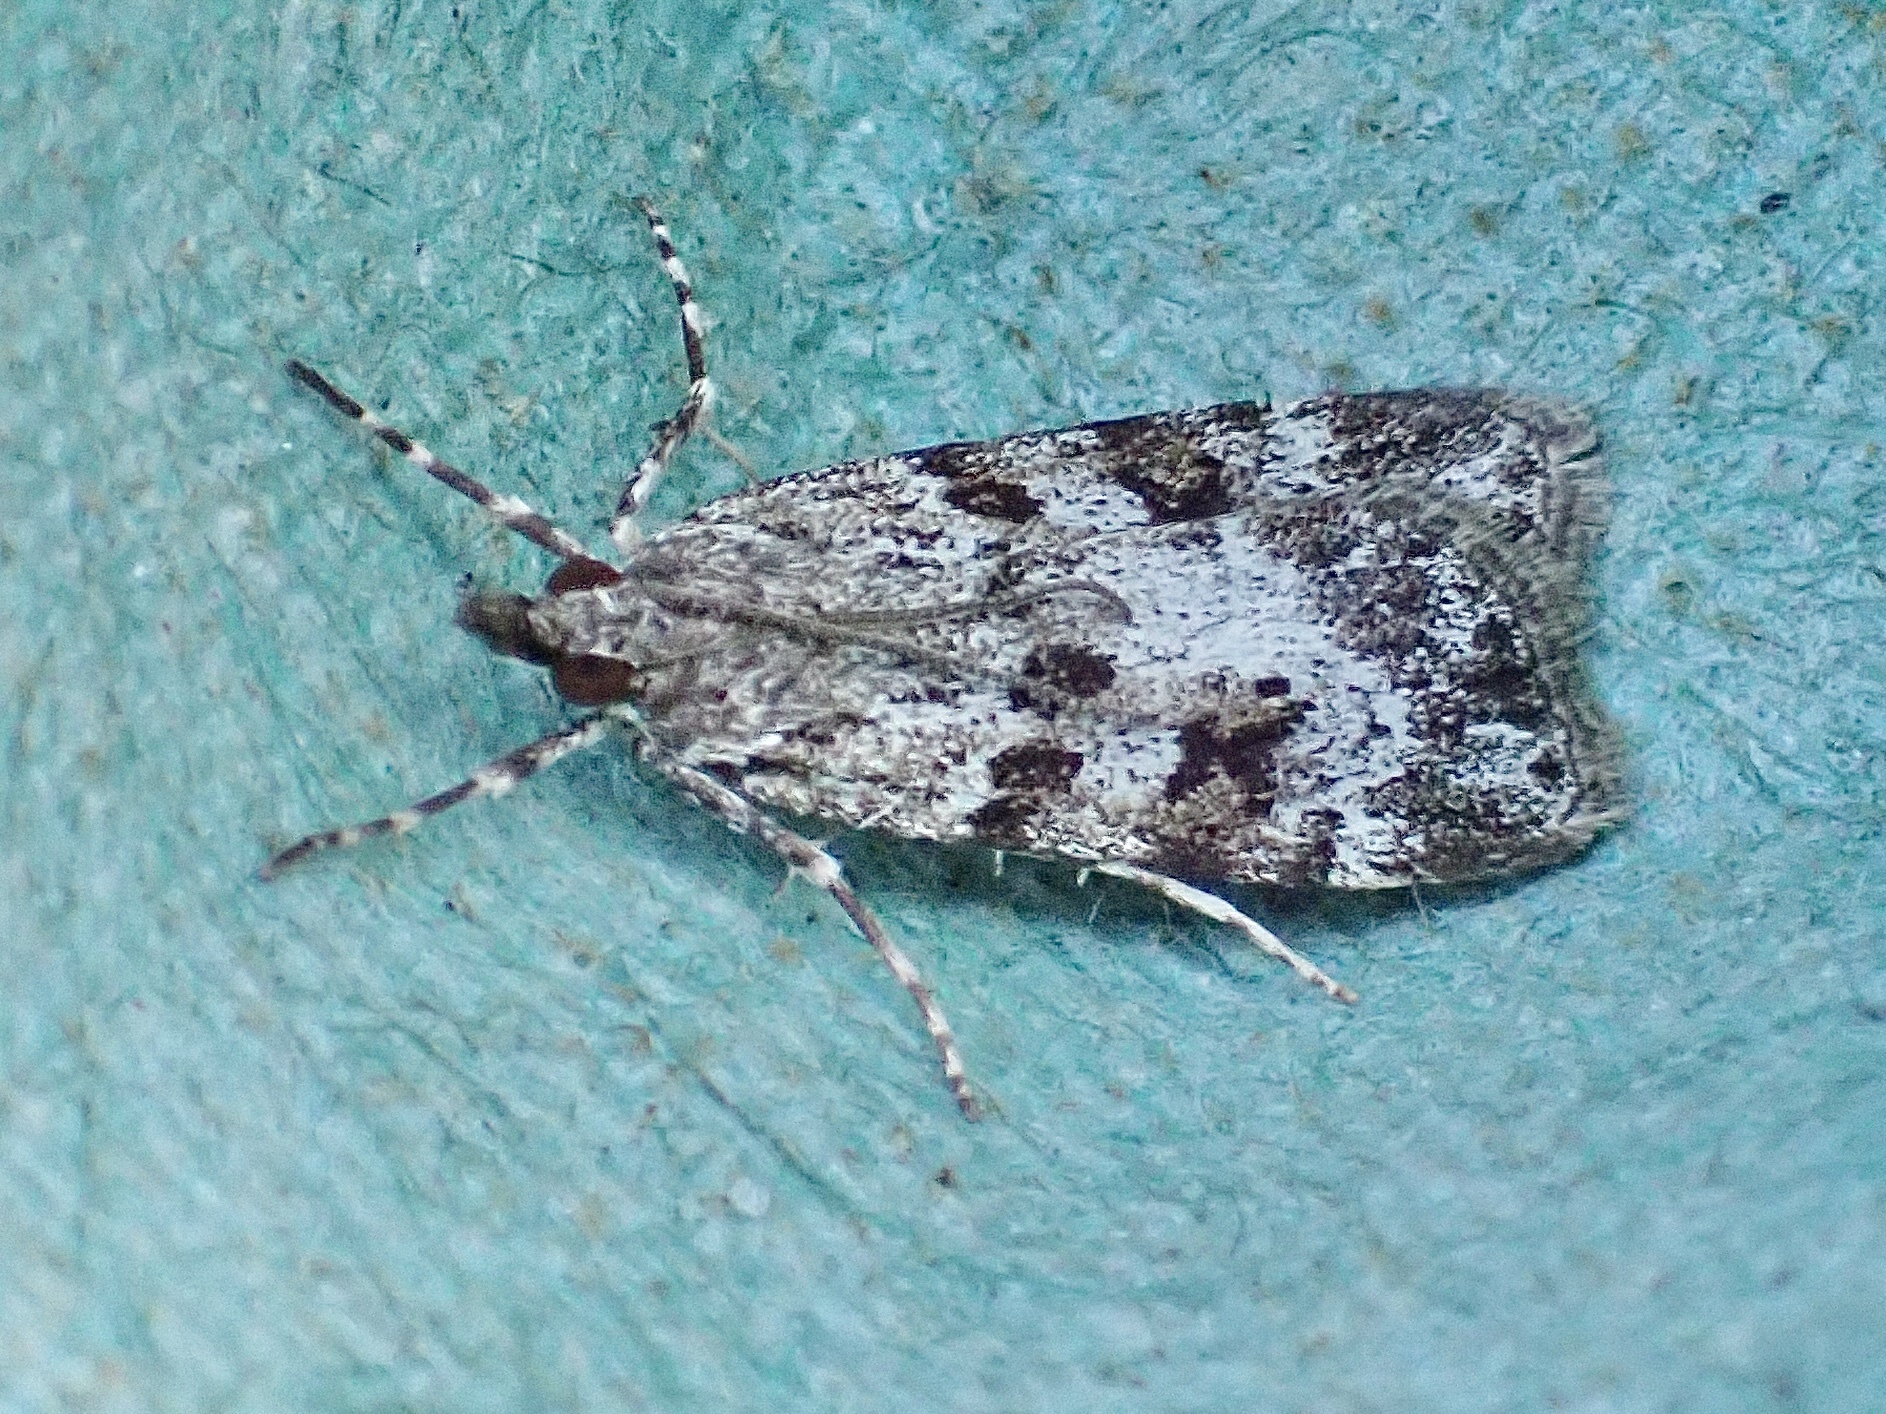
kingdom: Animalia
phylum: Arthropoda
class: Insecta
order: Lepidoptera
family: Crambidae
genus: Scoparia
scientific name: Scoparia ambigualis
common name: Common grey
